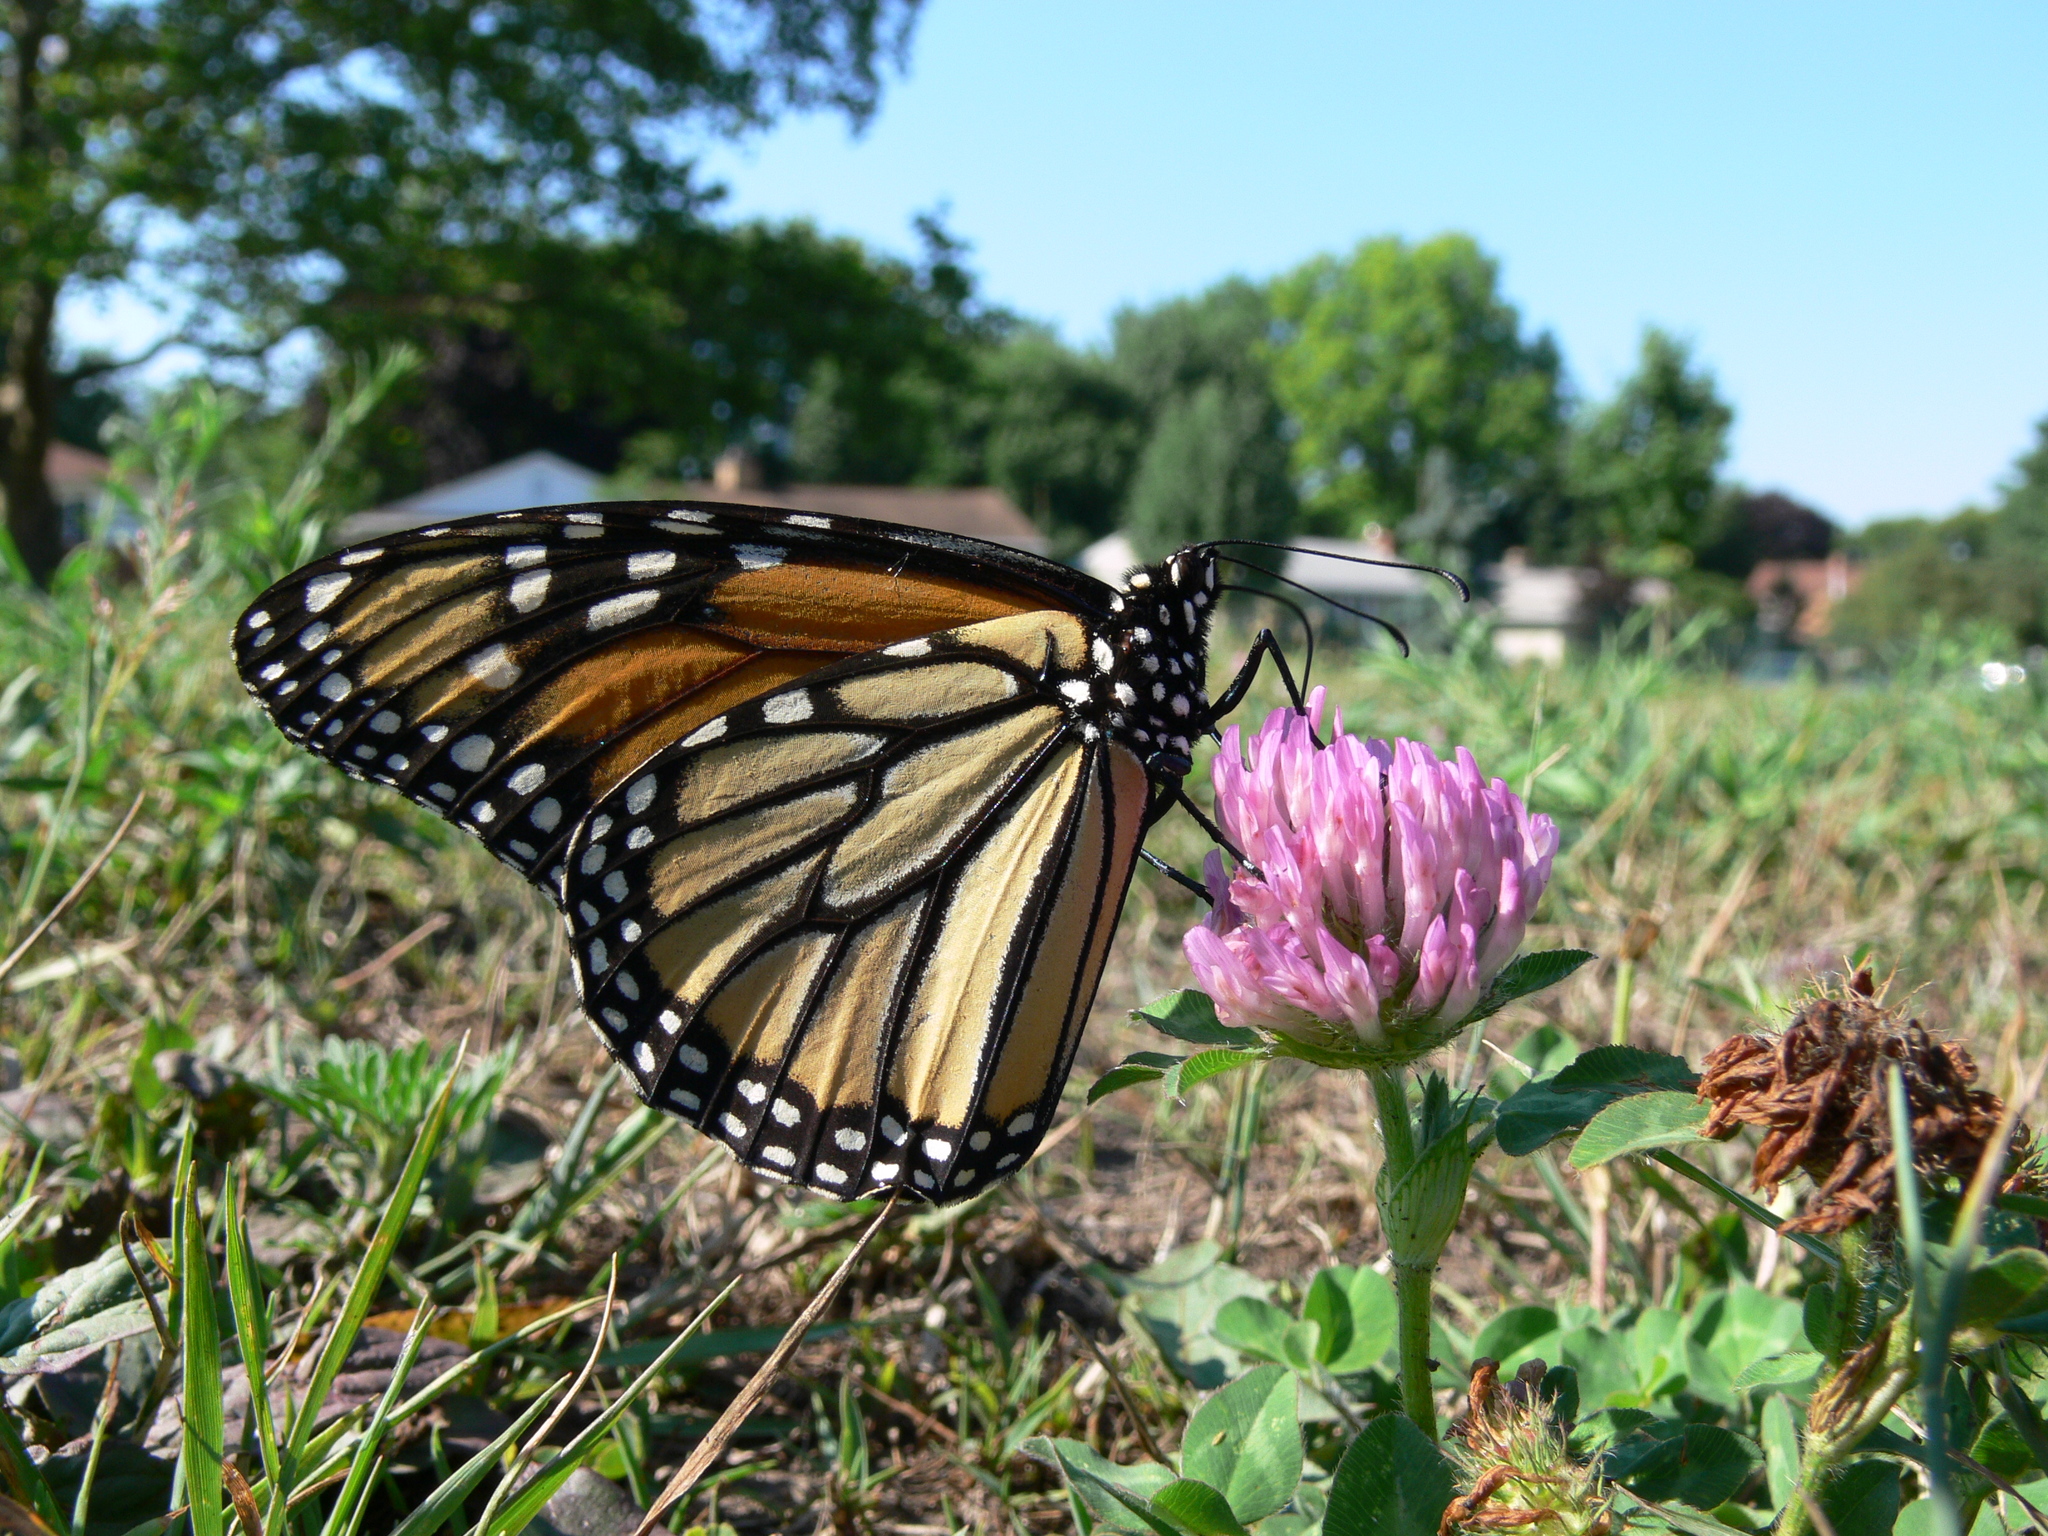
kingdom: Animalia
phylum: Arthropoda
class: Insecta
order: Lepidoptera
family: Nymphalidae
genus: Danaus
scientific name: Danaus plexippus
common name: Monarch
